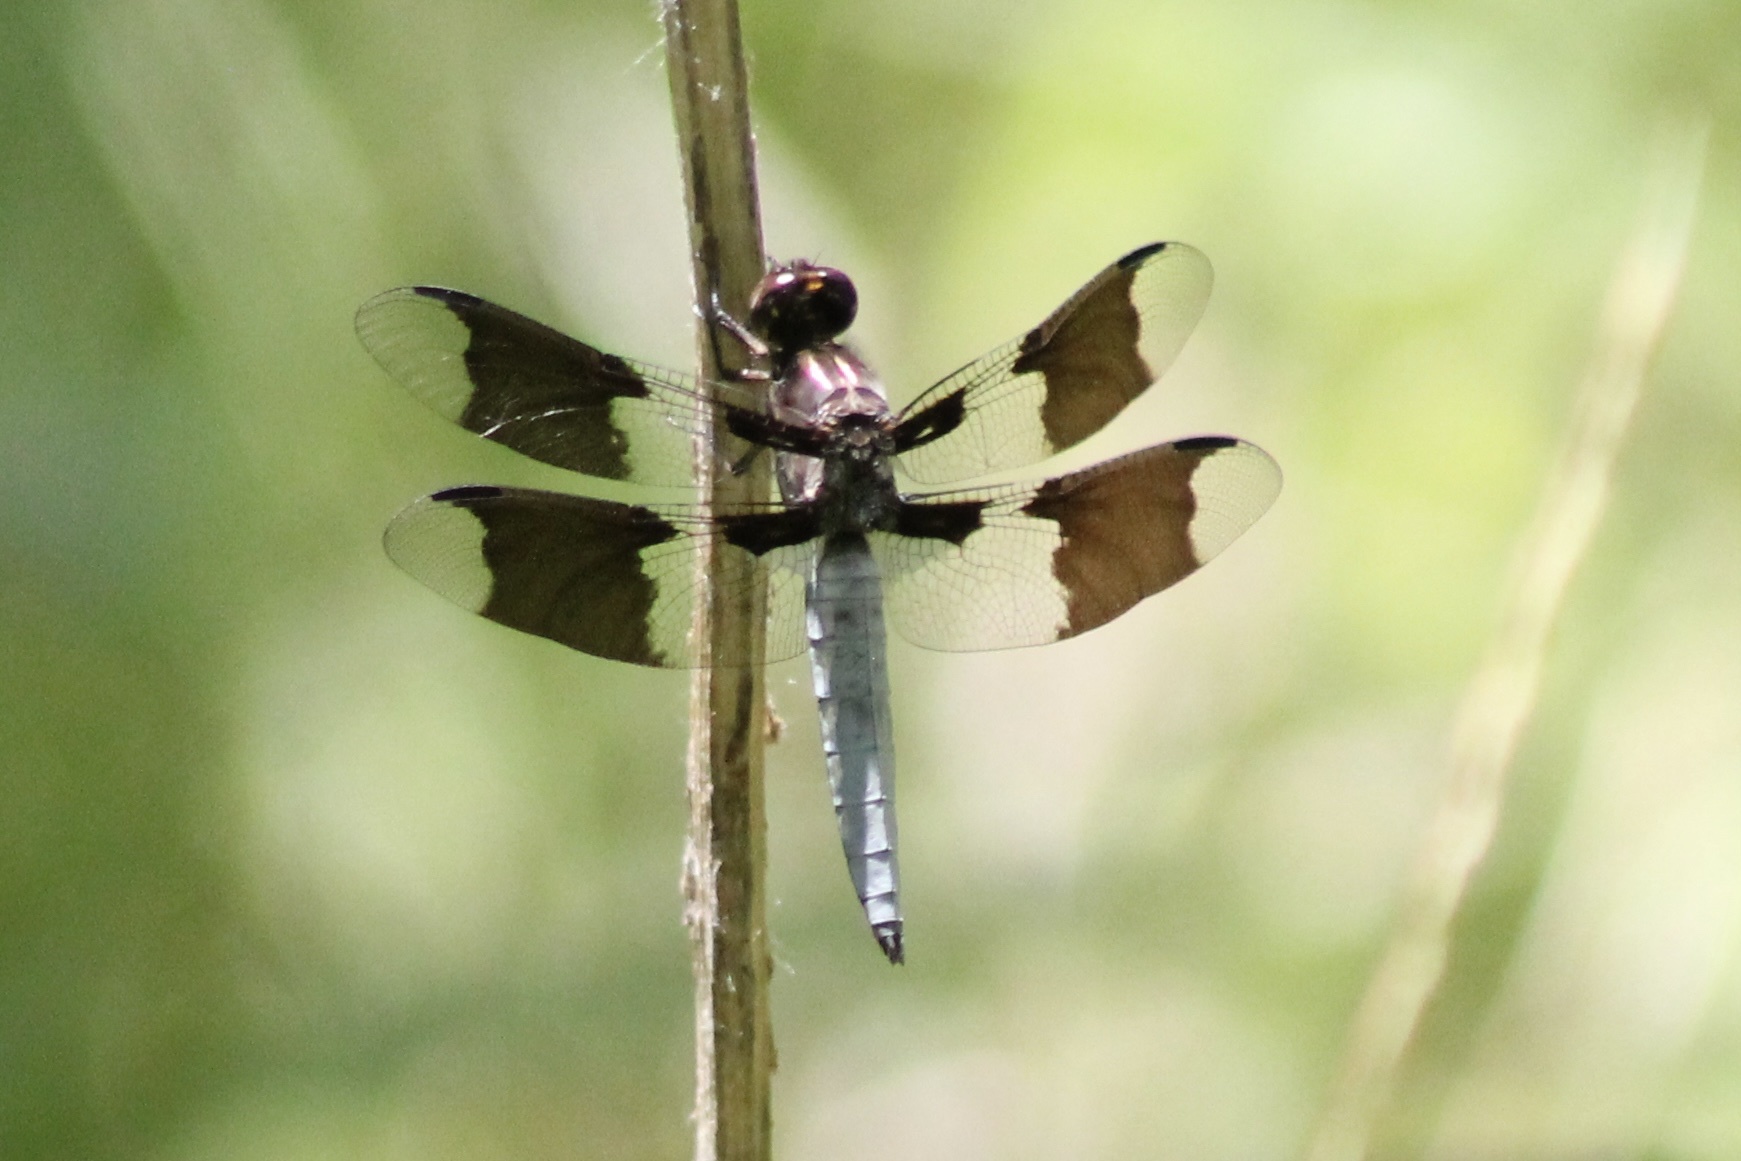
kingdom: Animalia
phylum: Arthropoda
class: Insecta
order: Odonata
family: Libellulidae
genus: Plathemis
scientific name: Plathemis lydia
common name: Common whitetail
